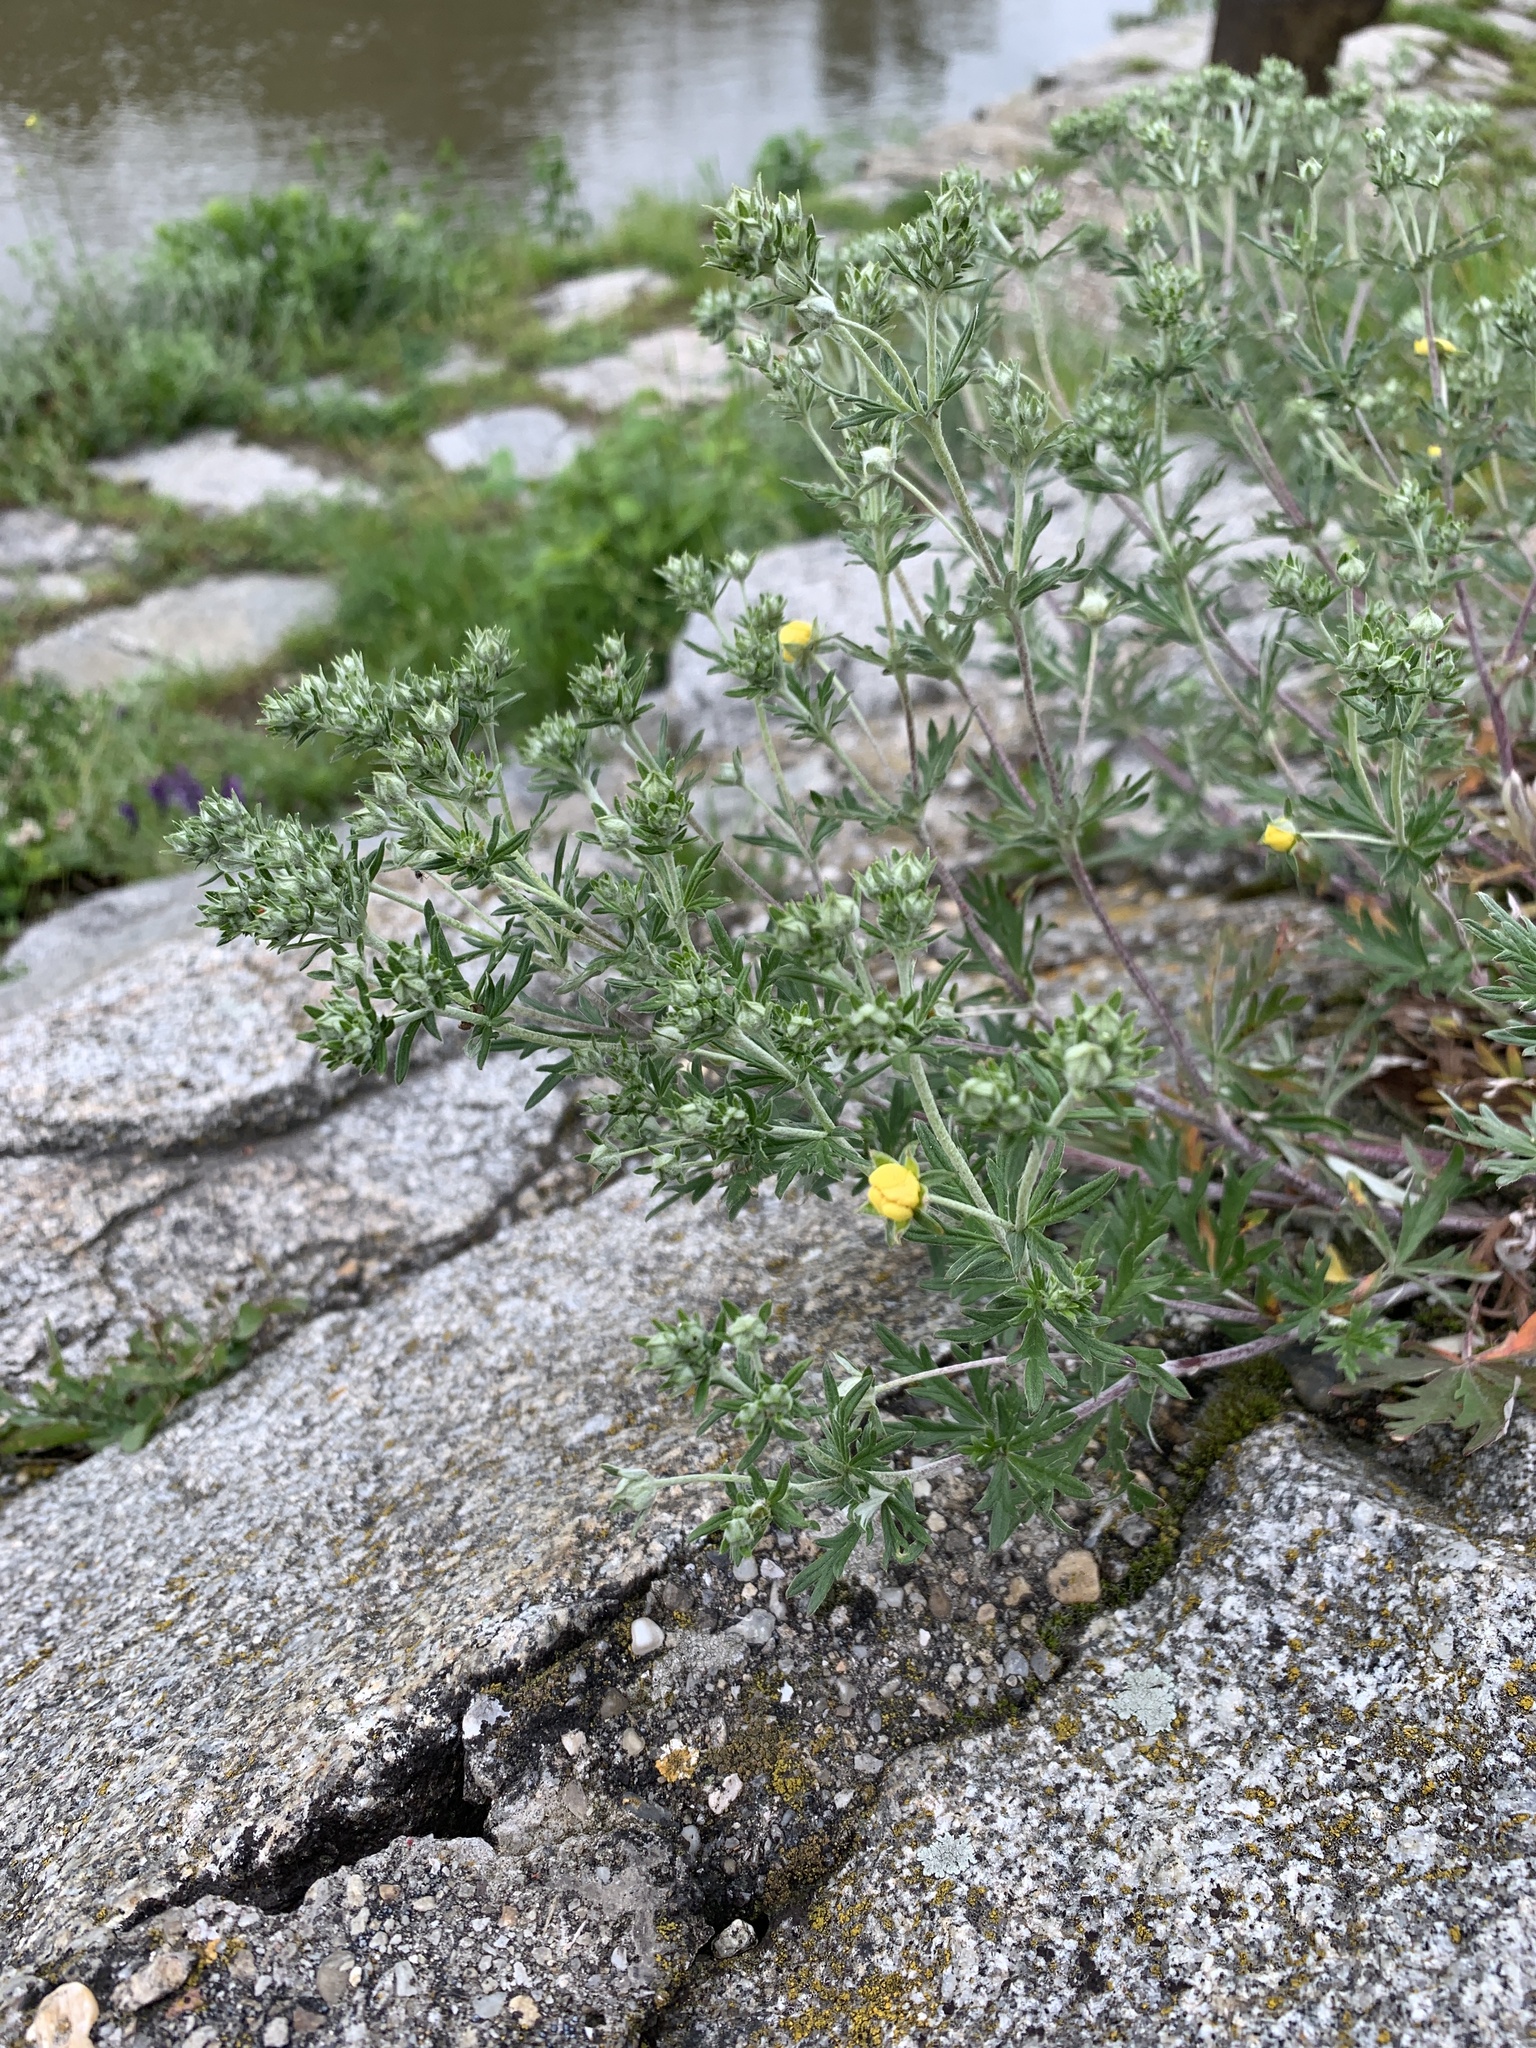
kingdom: Plantae
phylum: Tracheophyta
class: Magnoliopsida
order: Rosales
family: Rosaceae
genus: Potentilla
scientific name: Potentilla argentea
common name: Hoary cinquefoil
